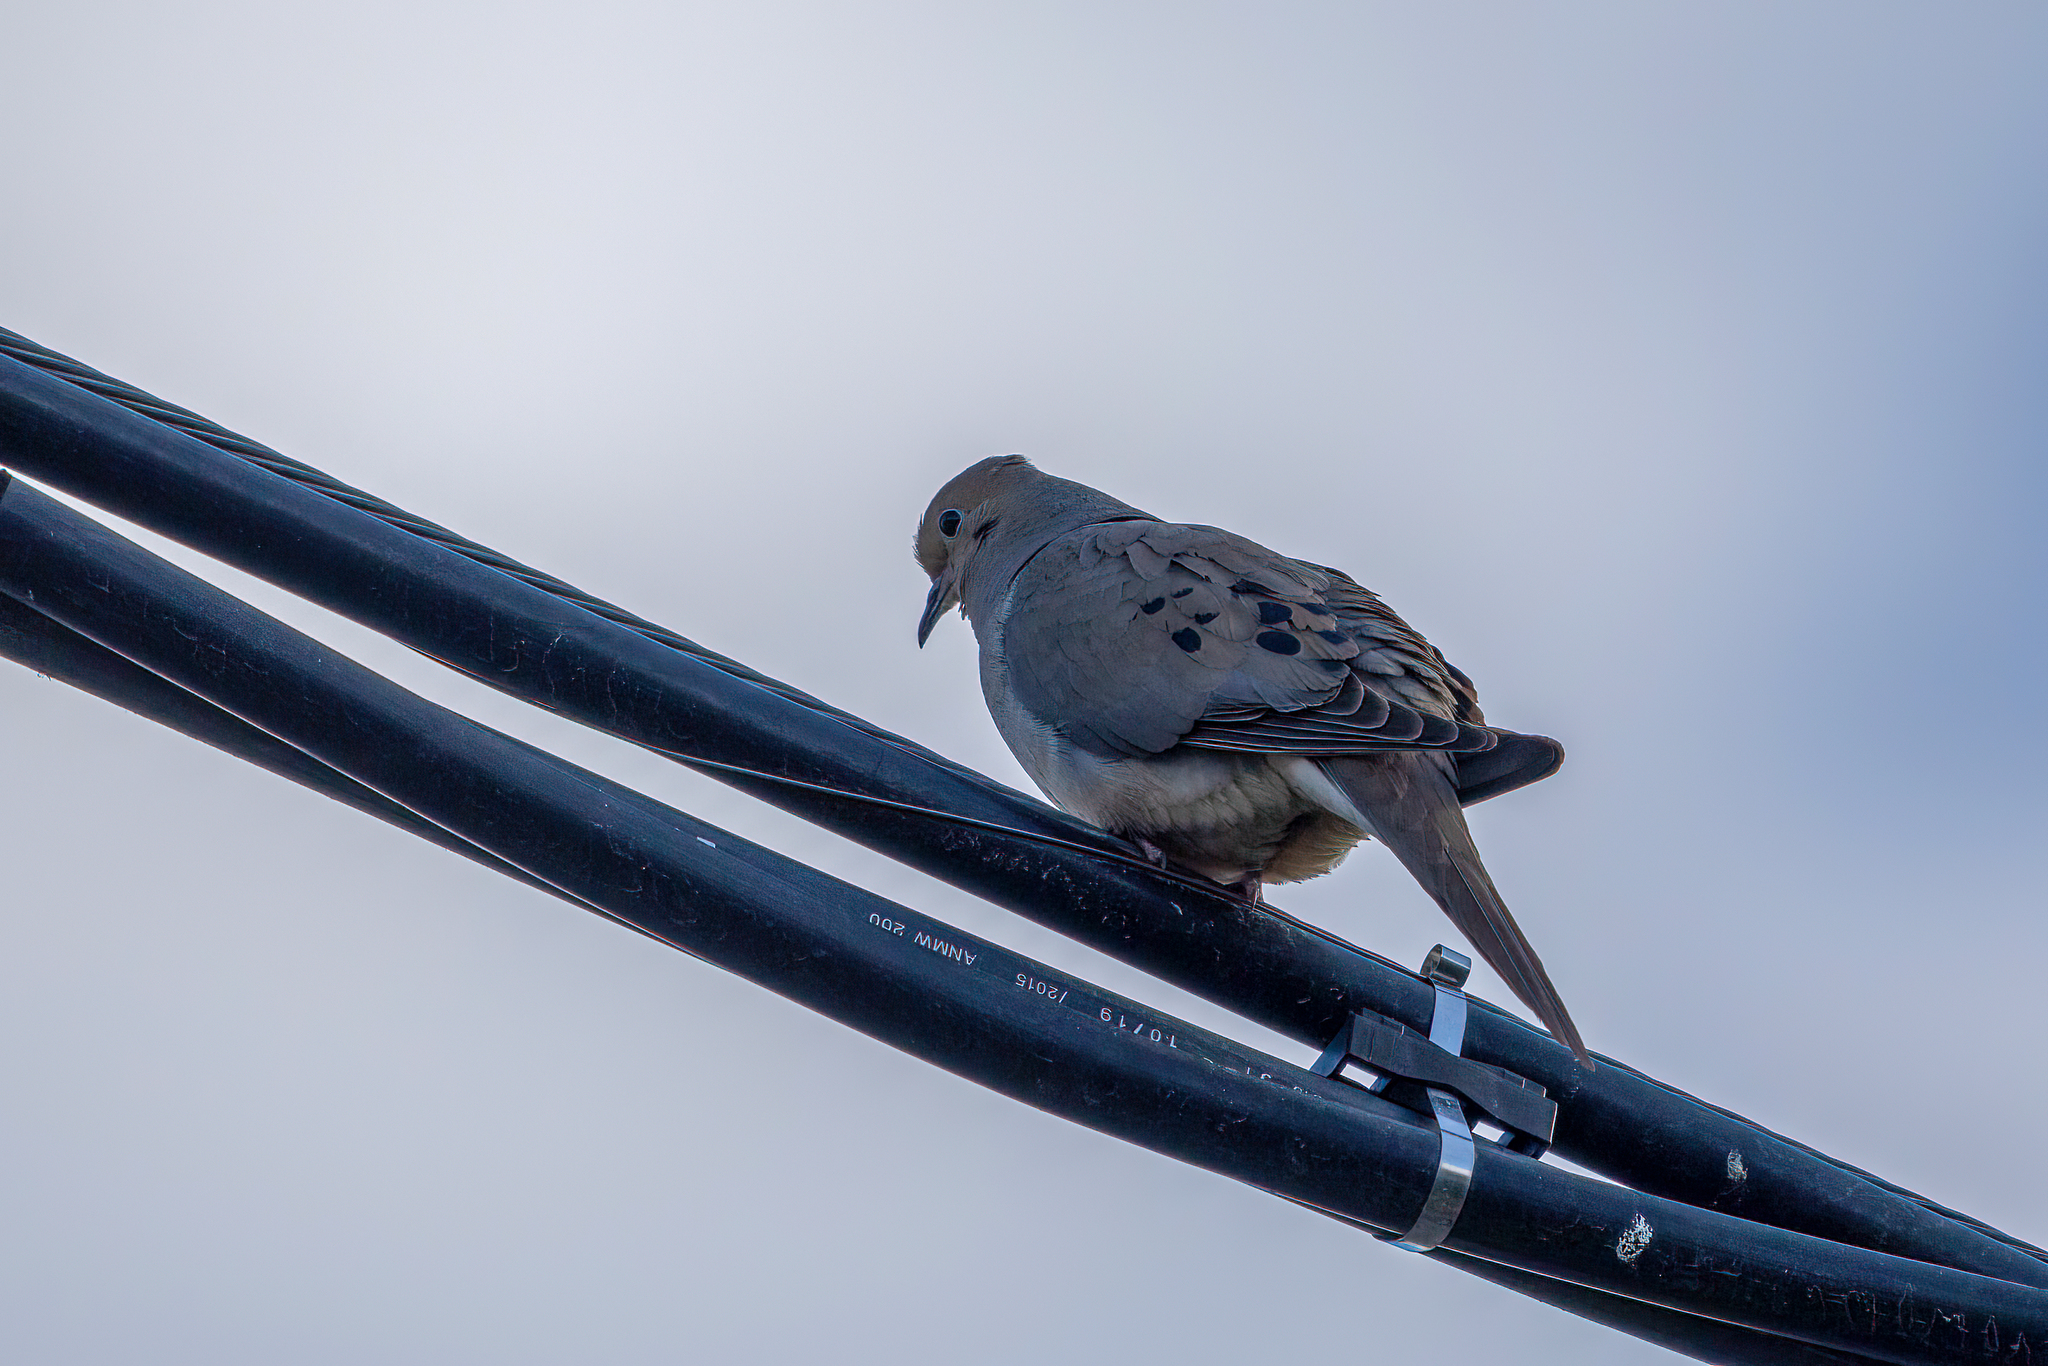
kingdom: Animalia
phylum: Chordata
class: Aves
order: Columbiformes
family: Columbidae
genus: Zenaida
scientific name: Zenaida macroura
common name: Mourning dove
